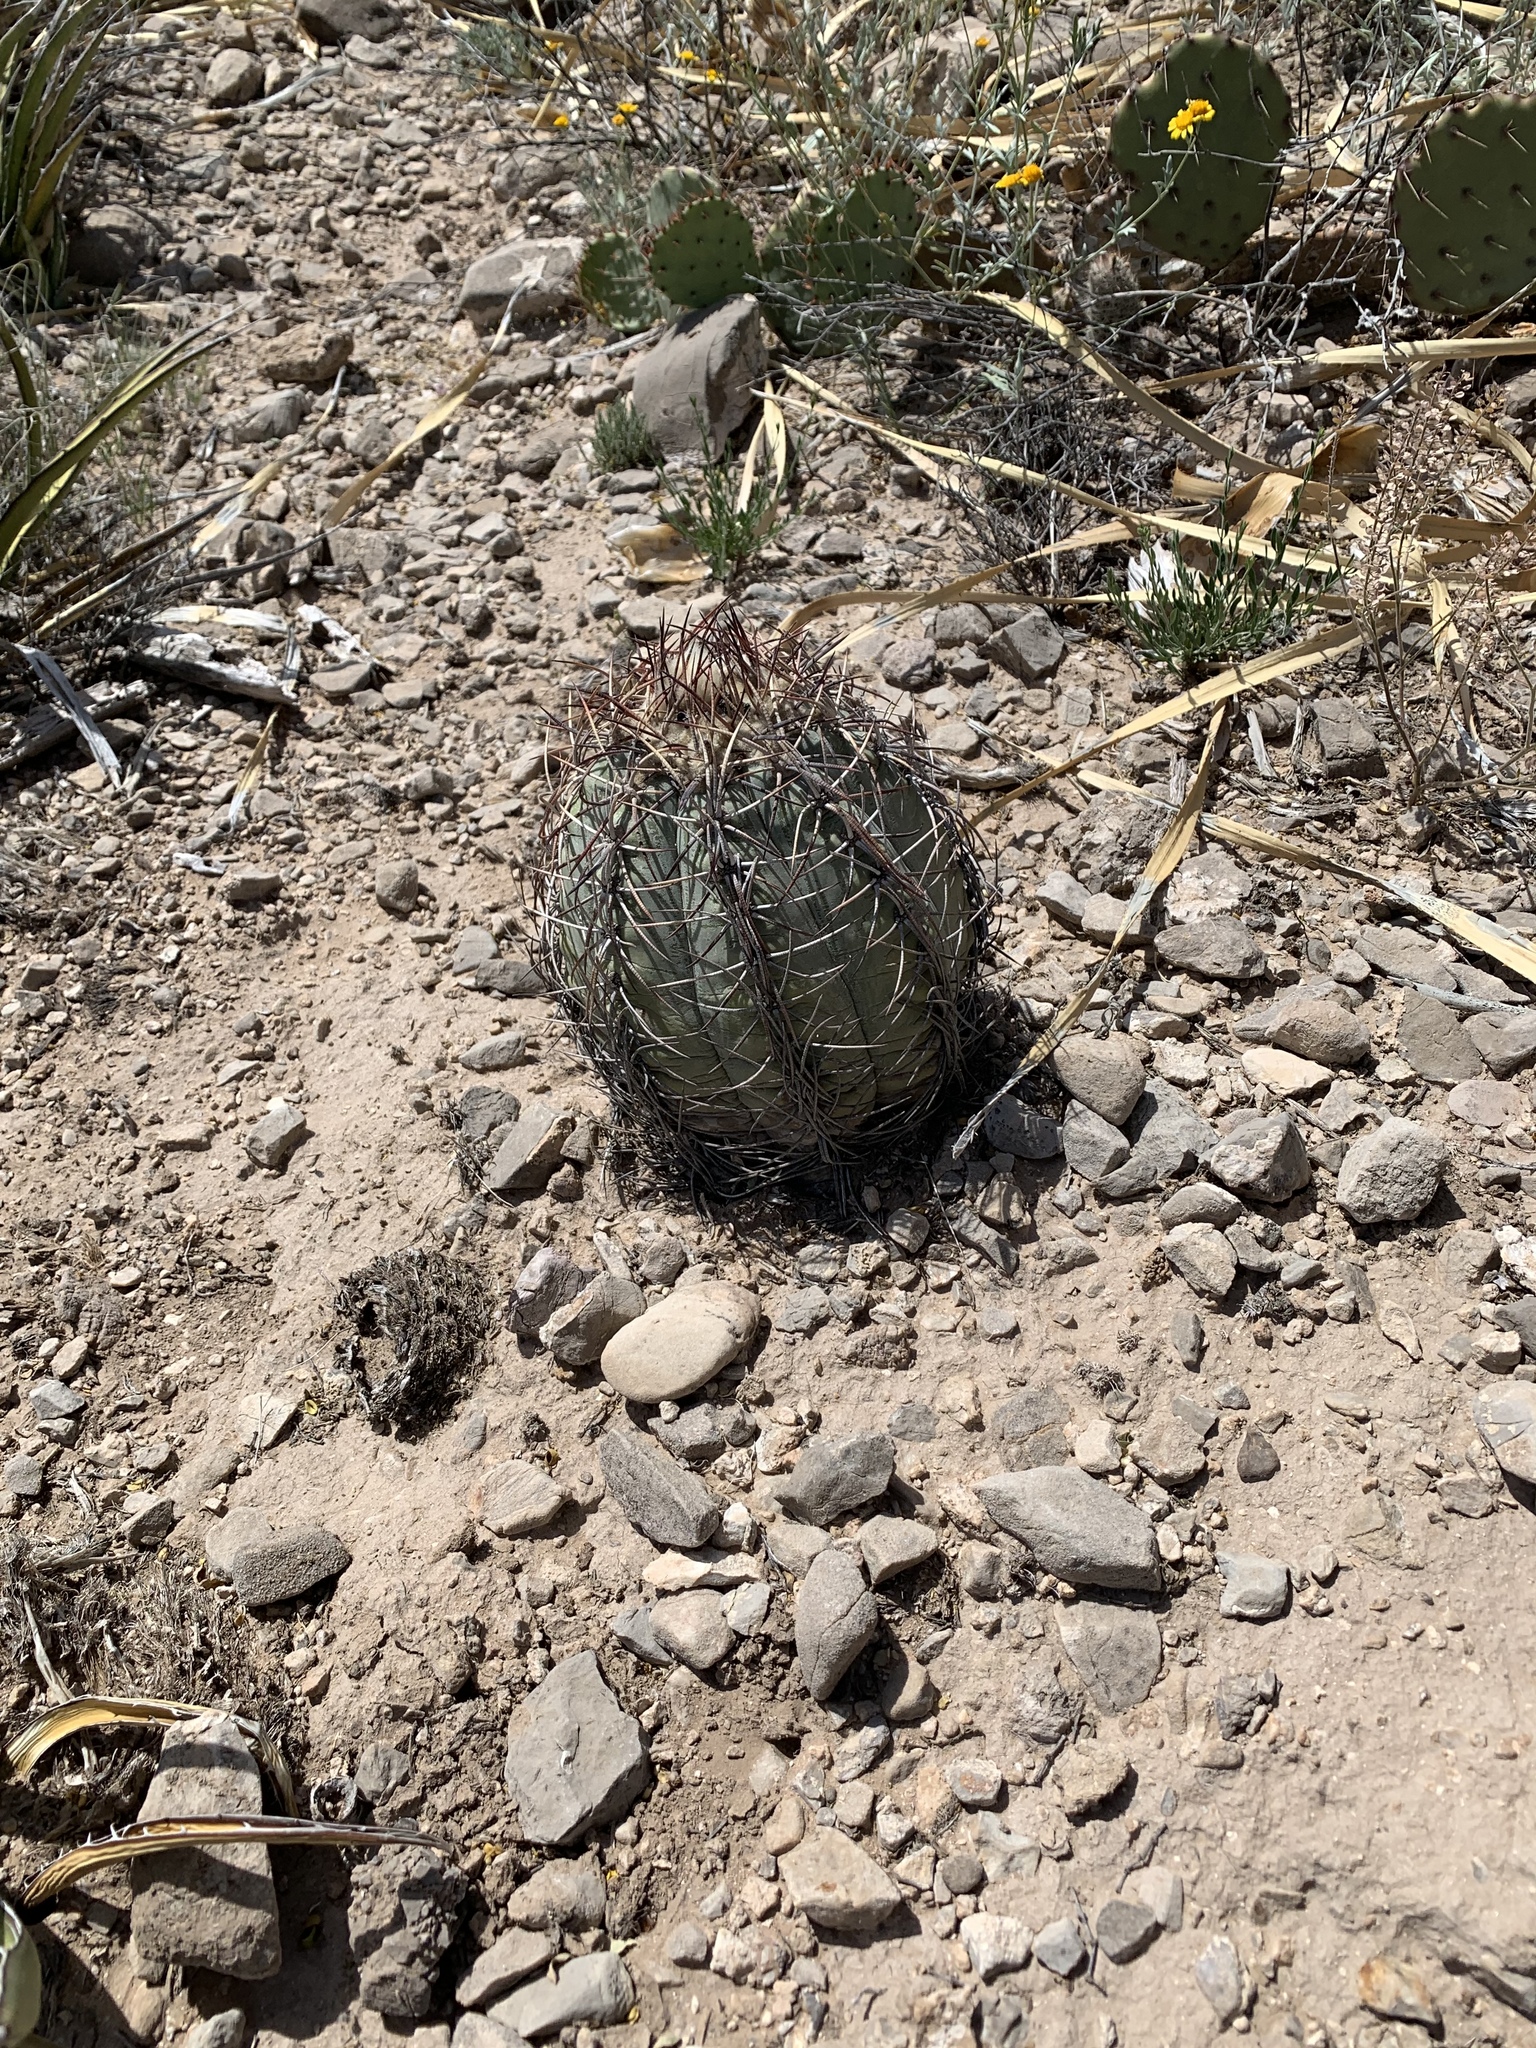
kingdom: Plantae
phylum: Tracheophyta
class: Magnoliopsida
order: Caryophyllales
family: Cactaceae
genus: Echinocactus
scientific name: Echinocactus horizonthalonius
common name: Devilshead
